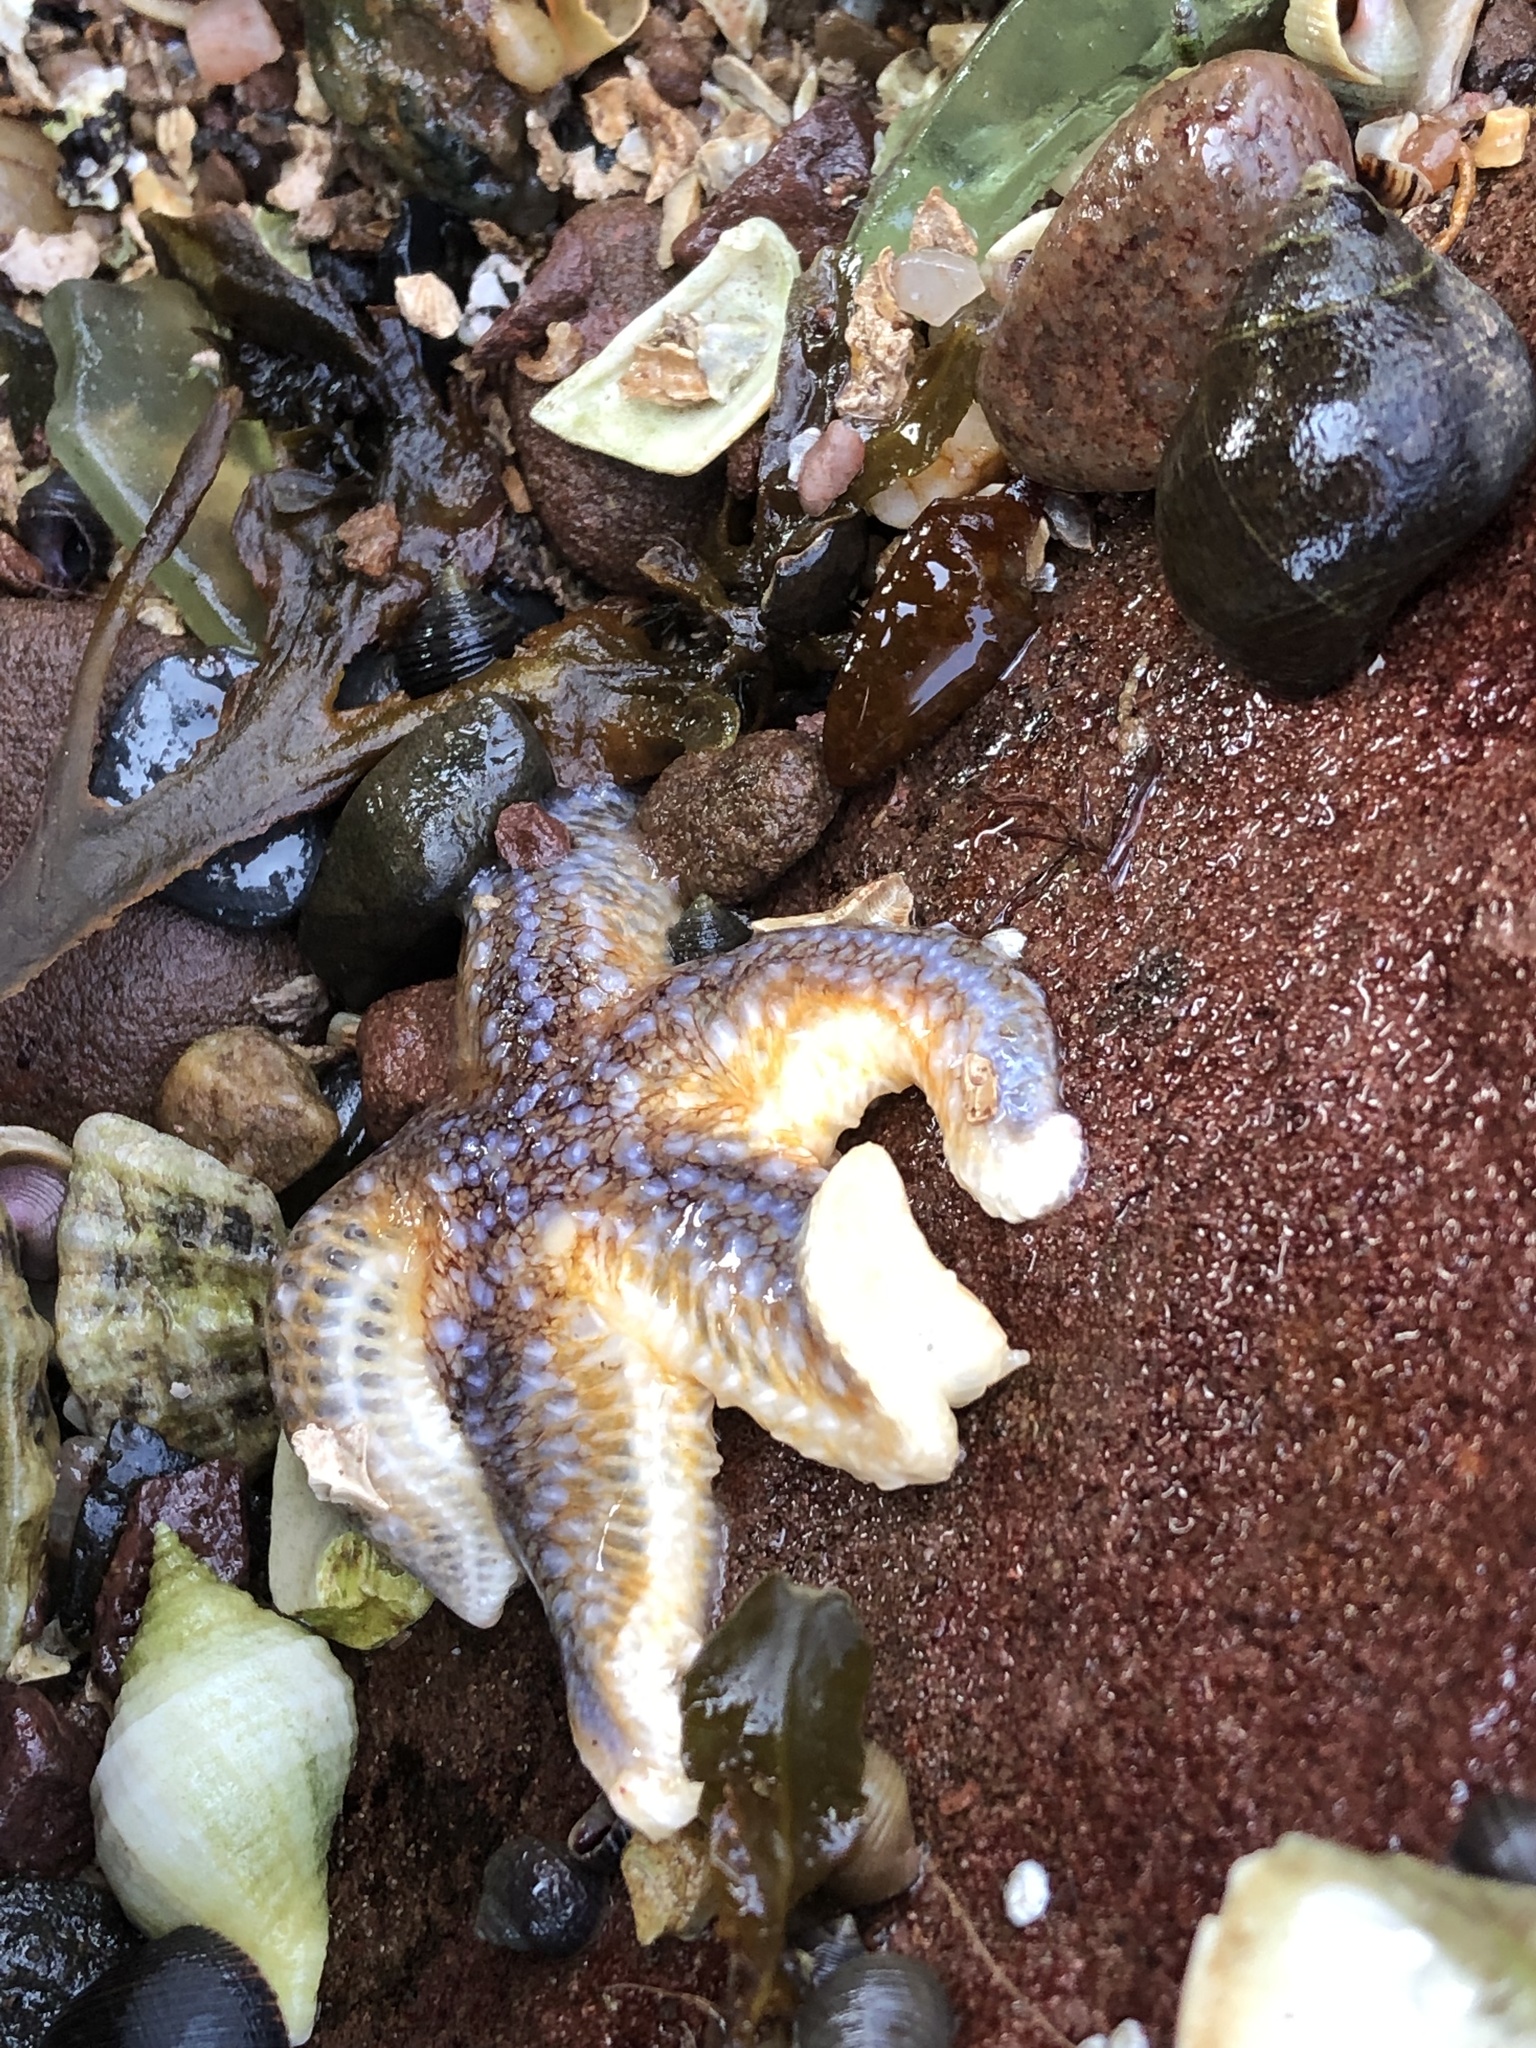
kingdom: Animalia
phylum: Echinodermata
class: Asteroidea
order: Forcipulatida
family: Asteriidae
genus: Asterias
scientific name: Asterias rubens
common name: Common starfish
